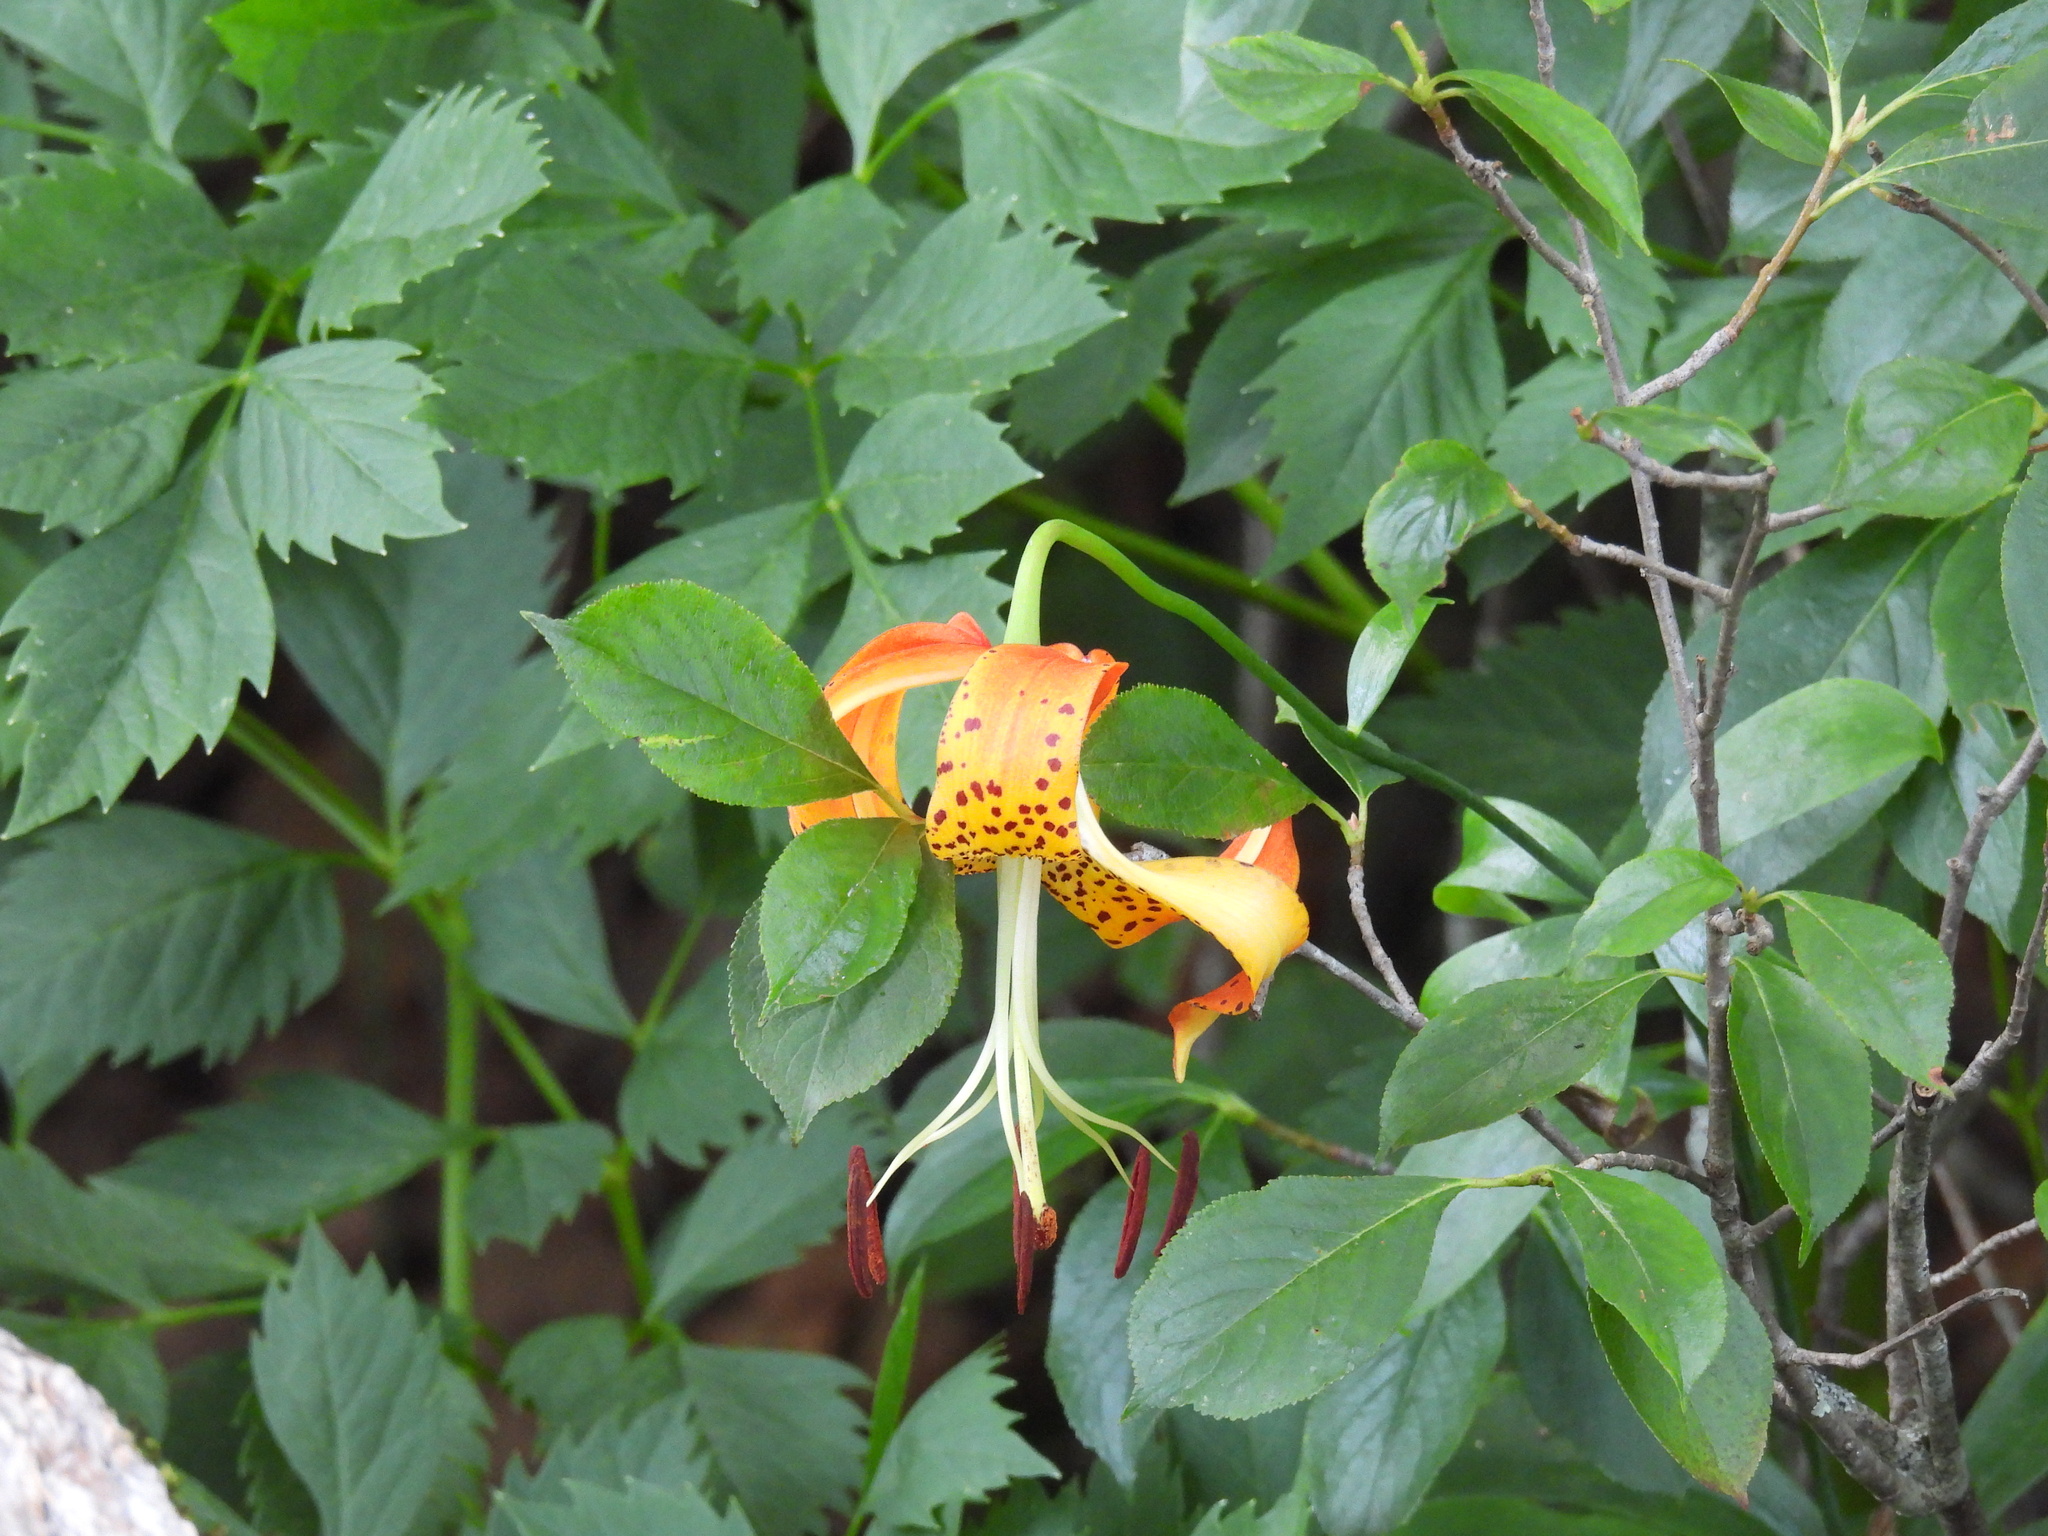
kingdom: Plantae
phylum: Tracheophyta
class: Liliopsida
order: Liliales
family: Liliaceae
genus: Lilium
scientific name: Lilium michauxii
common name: Carolina lily
